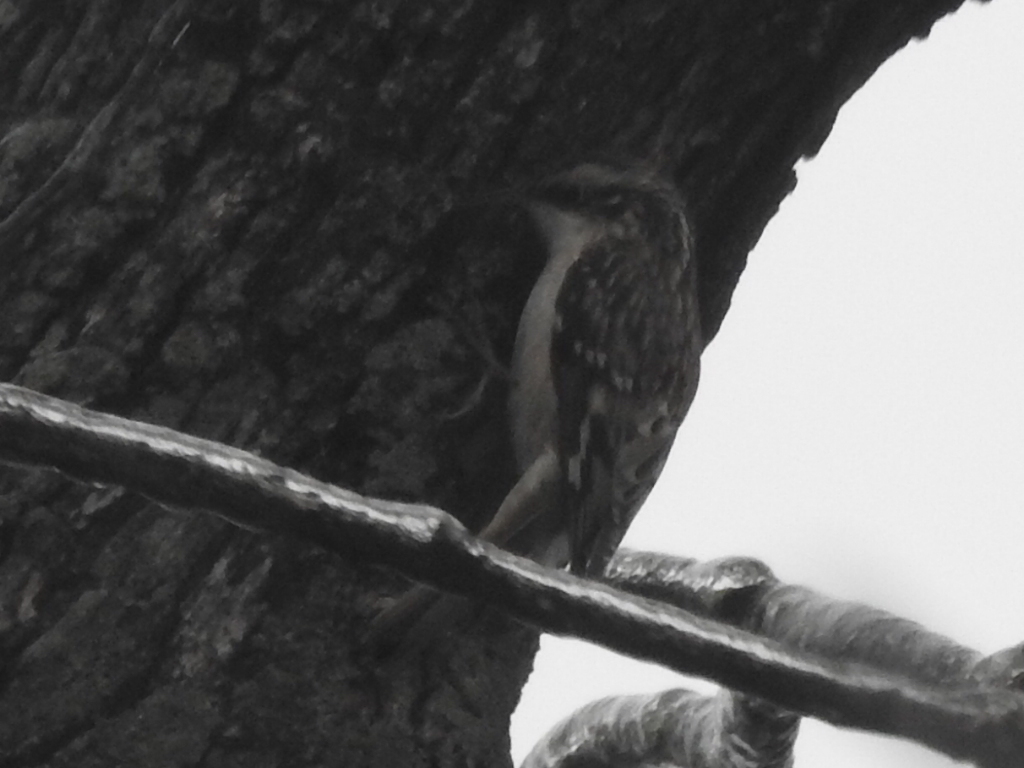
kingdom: Animalia
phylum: Chordata
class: Aves
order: Passeriformes
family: Certhiidae
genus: Certhia
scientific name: Certhia americana
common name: Brown creeper
